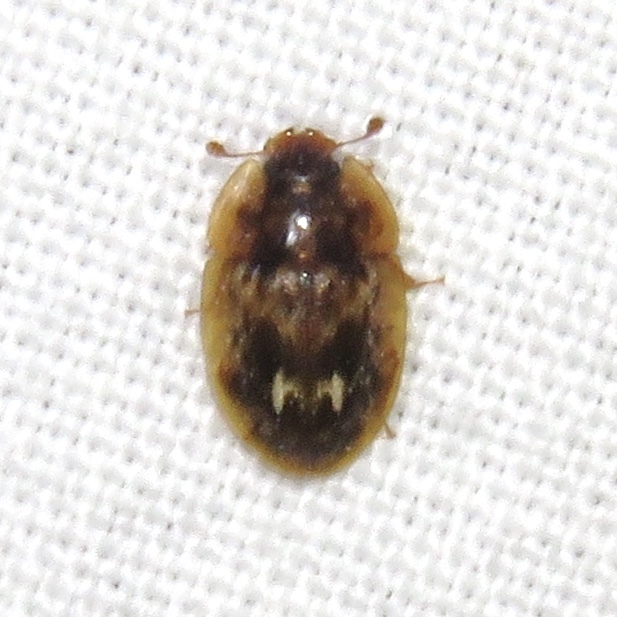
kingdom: Animalia
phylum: Arthropoda
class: Insecta
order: Coleoptera
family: Nitidulidae
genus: Lobiopa
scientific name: Lobiopa undulata
